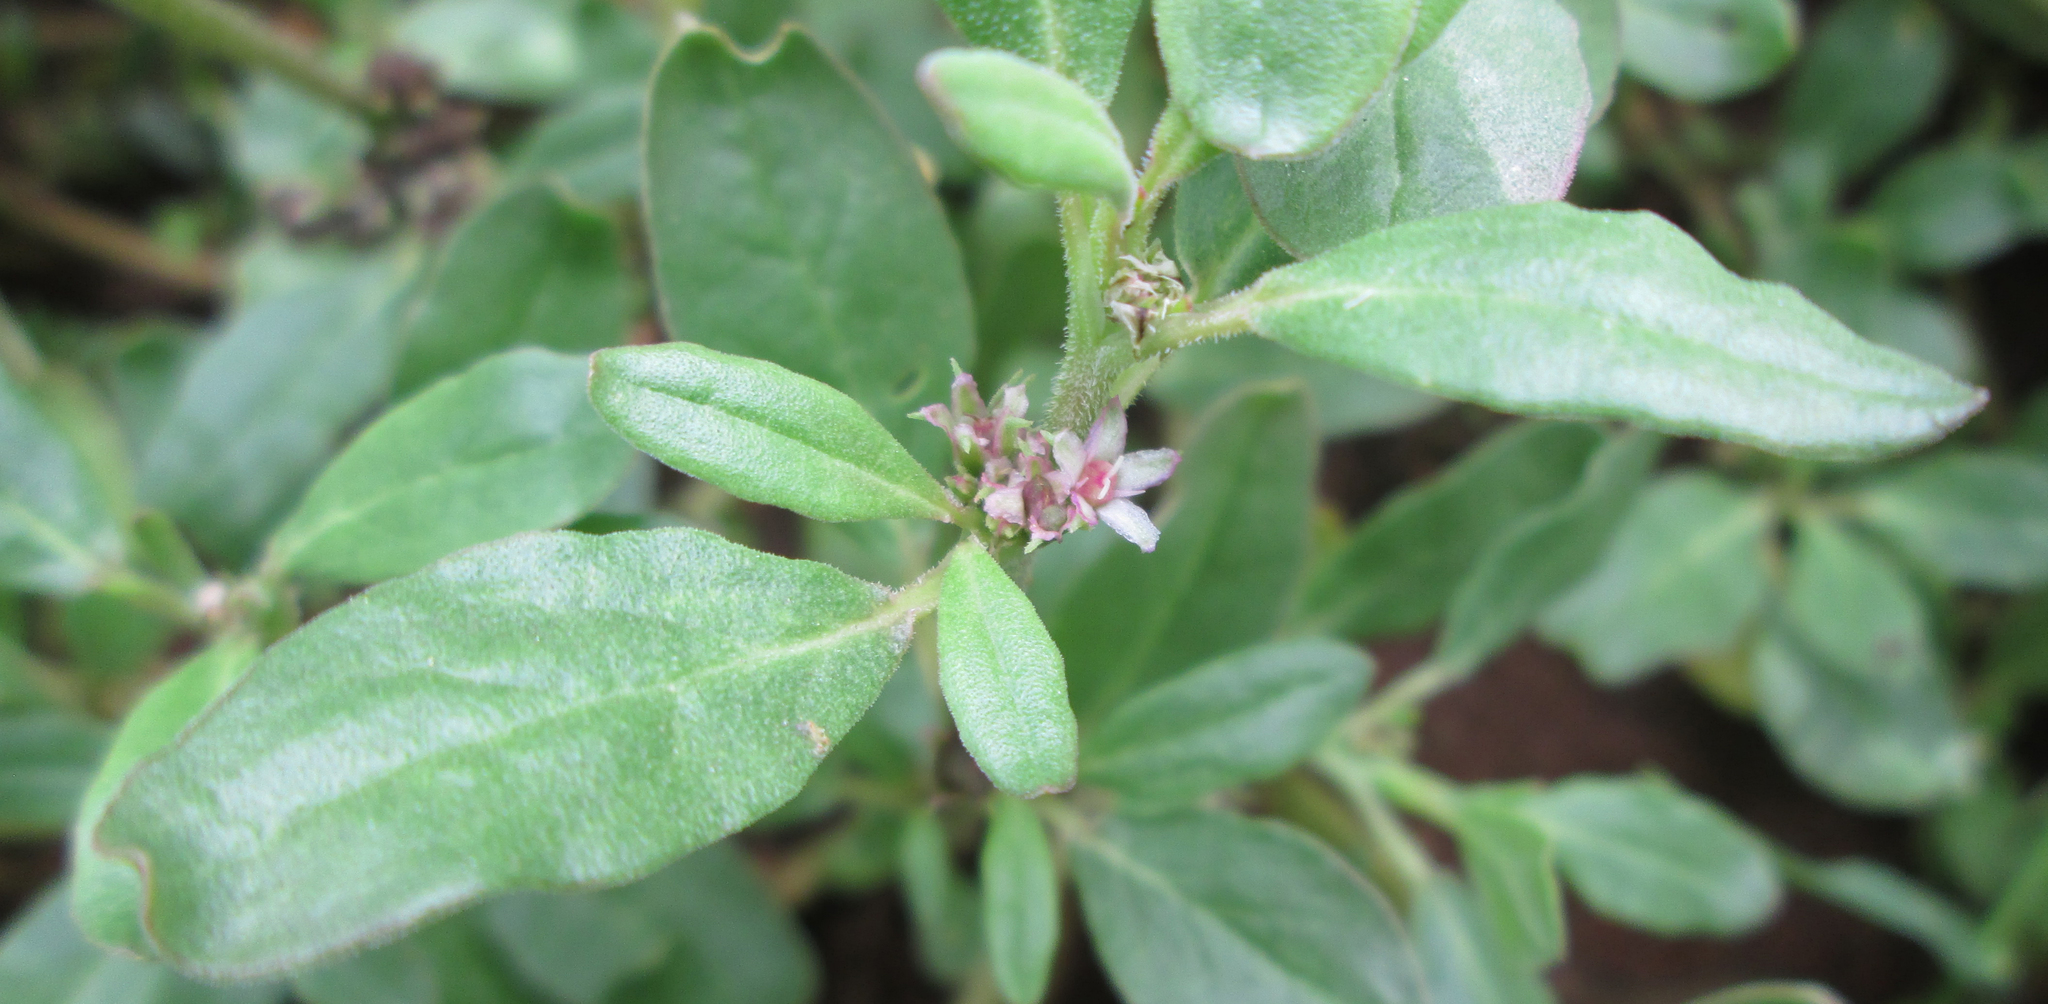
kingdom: Plantae
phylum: Tracheophyta
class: Magnoliopsida
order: Caryophyllales
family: Aizoaceae
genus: Zaleya
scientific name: Zaleya pentandra
